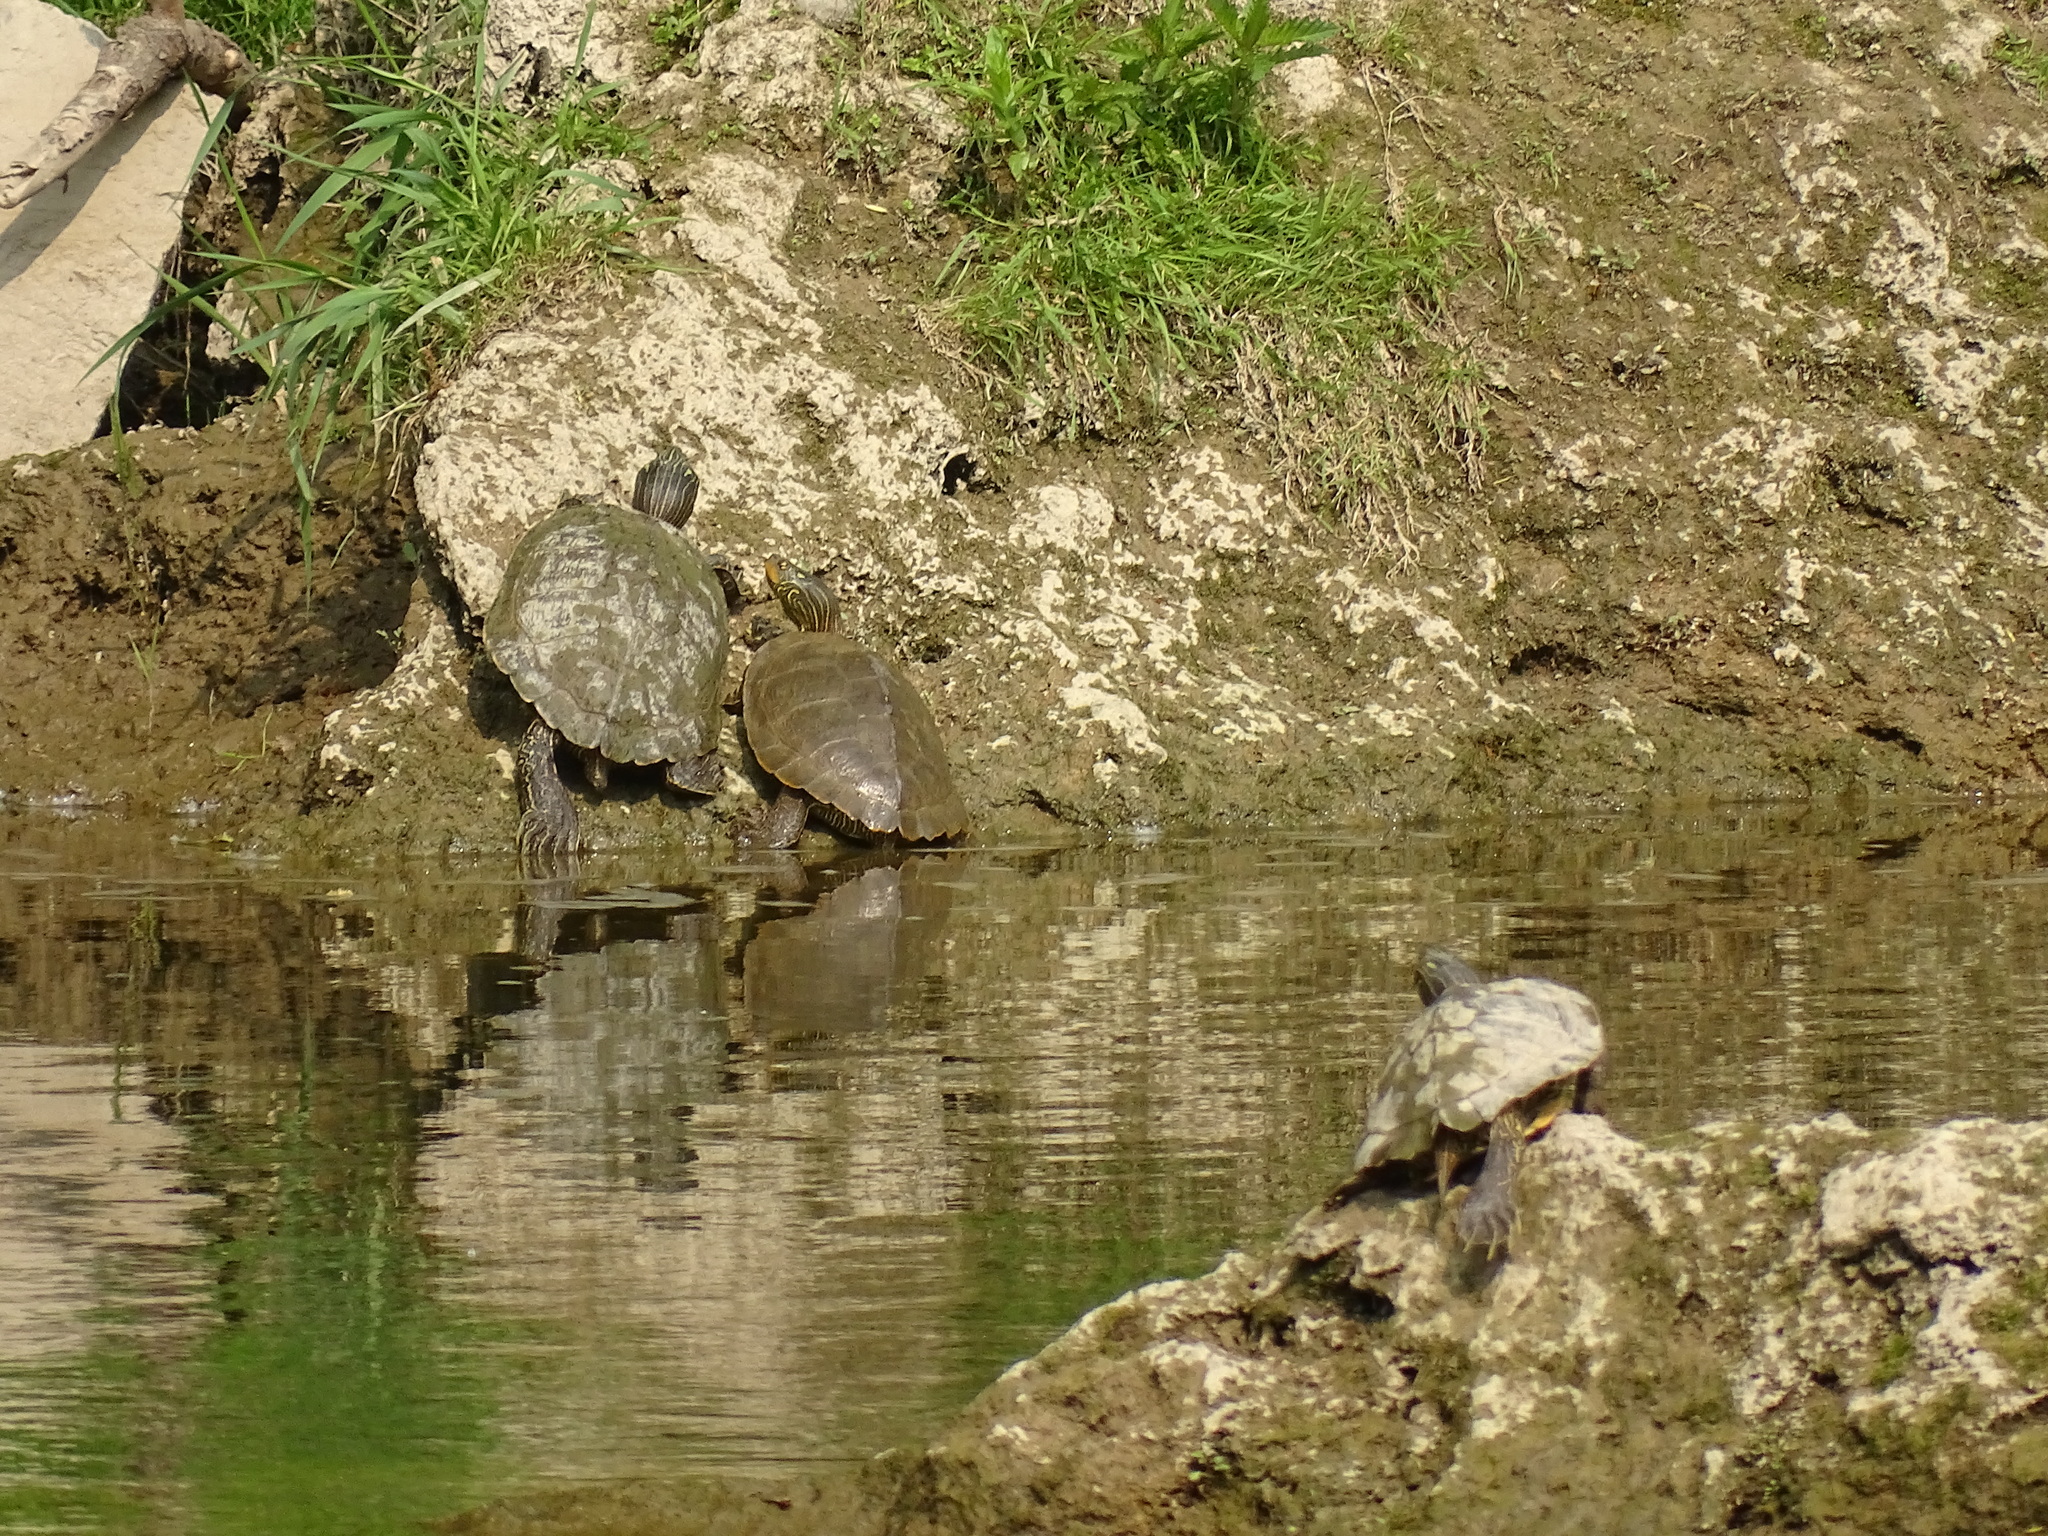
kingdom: Animalia
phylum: Chordata
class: Testudines
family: Emydidae
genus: Graptemys
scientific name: Graptemys geographica
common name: Common map turtle
